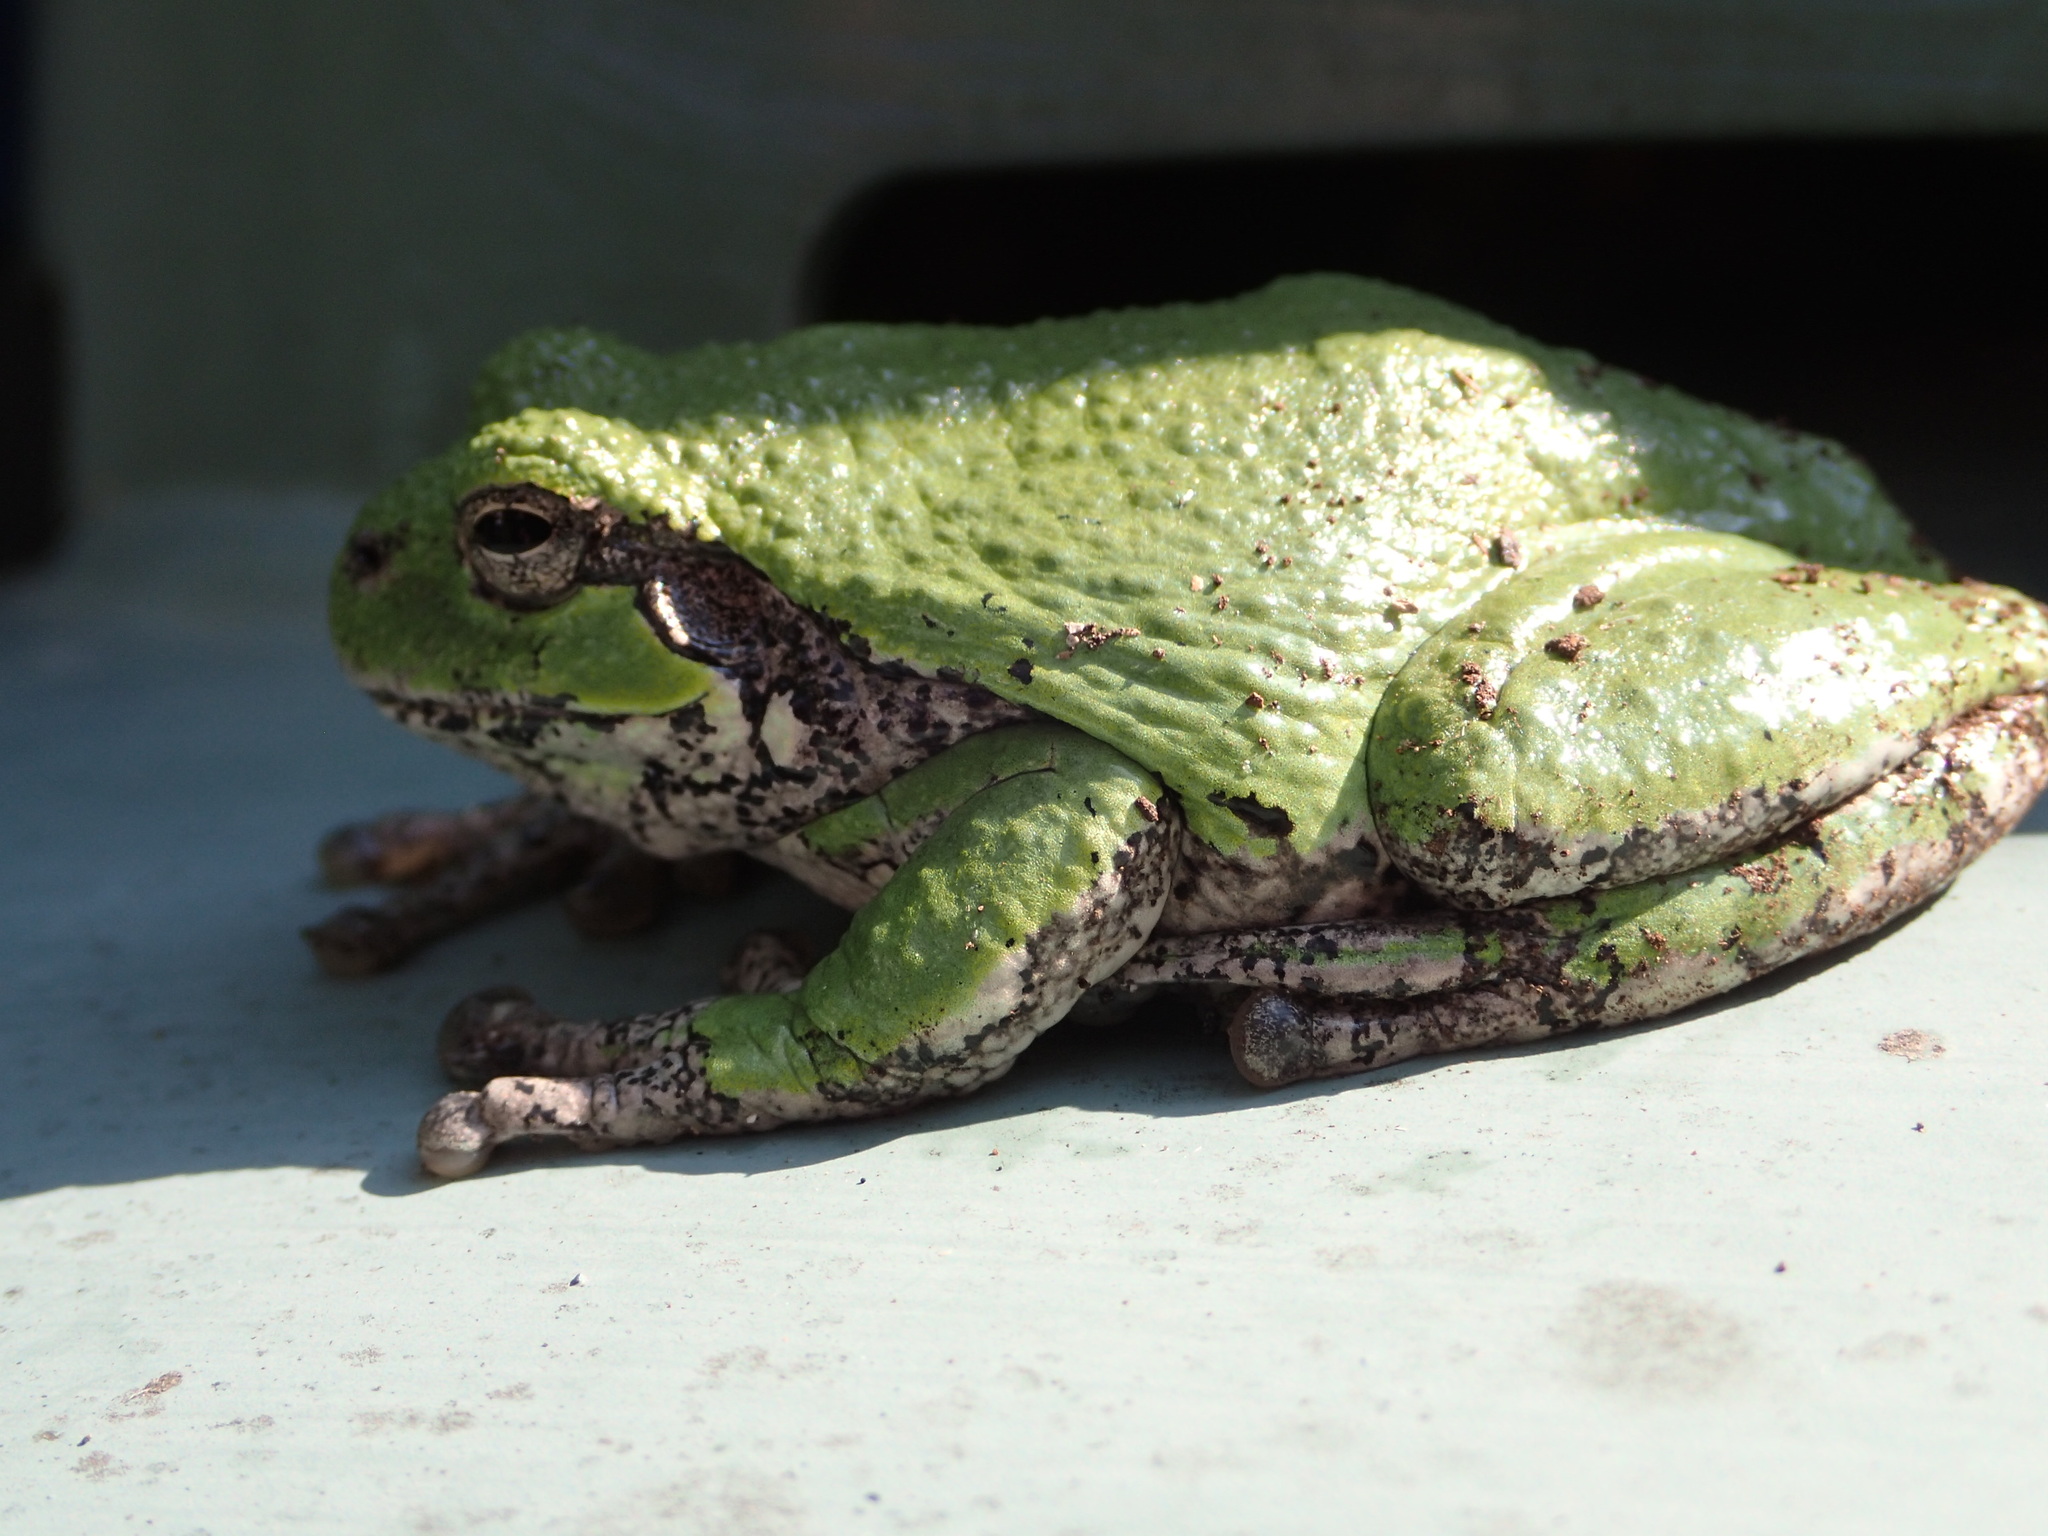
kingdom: Animalia
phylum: Chordata
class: Amphibia
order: Anura
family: Hylidae
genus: Dryophytes
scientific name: Dryophytes versicolor
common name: Gray treefrog
